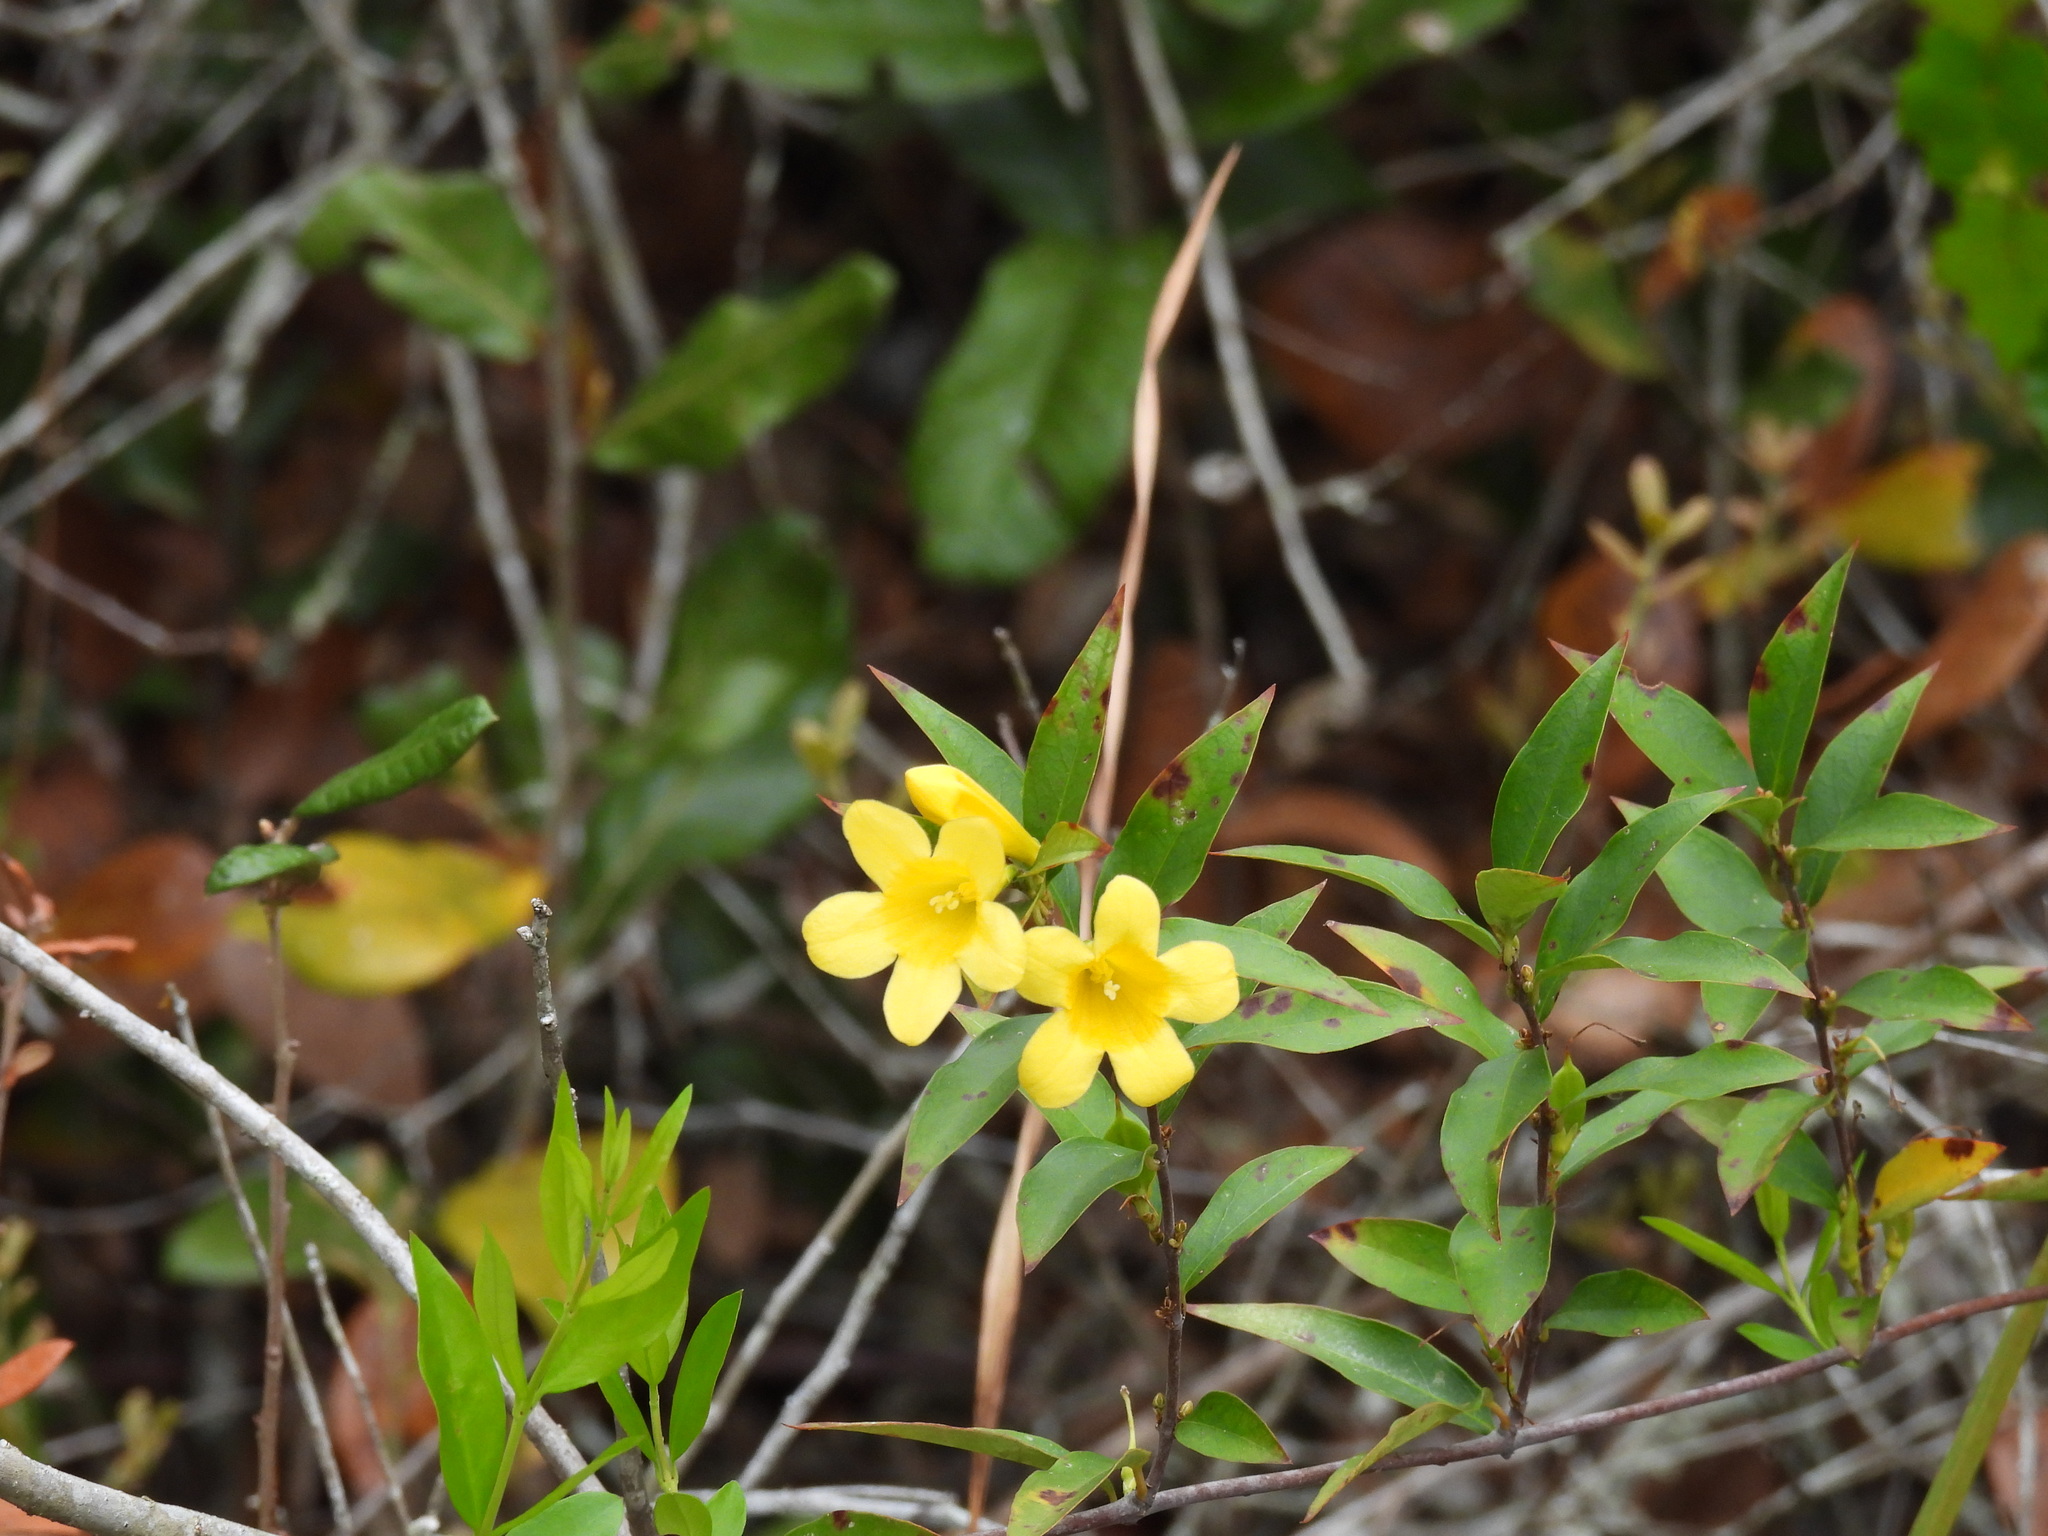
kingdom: Plantae
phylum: Tracheophyta
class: Magnoliopsida
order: Gentianales
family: Gelsemiaceae
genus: Gelsemium
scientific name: Gelsemium sempervirens
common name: Carolina-jasmine
